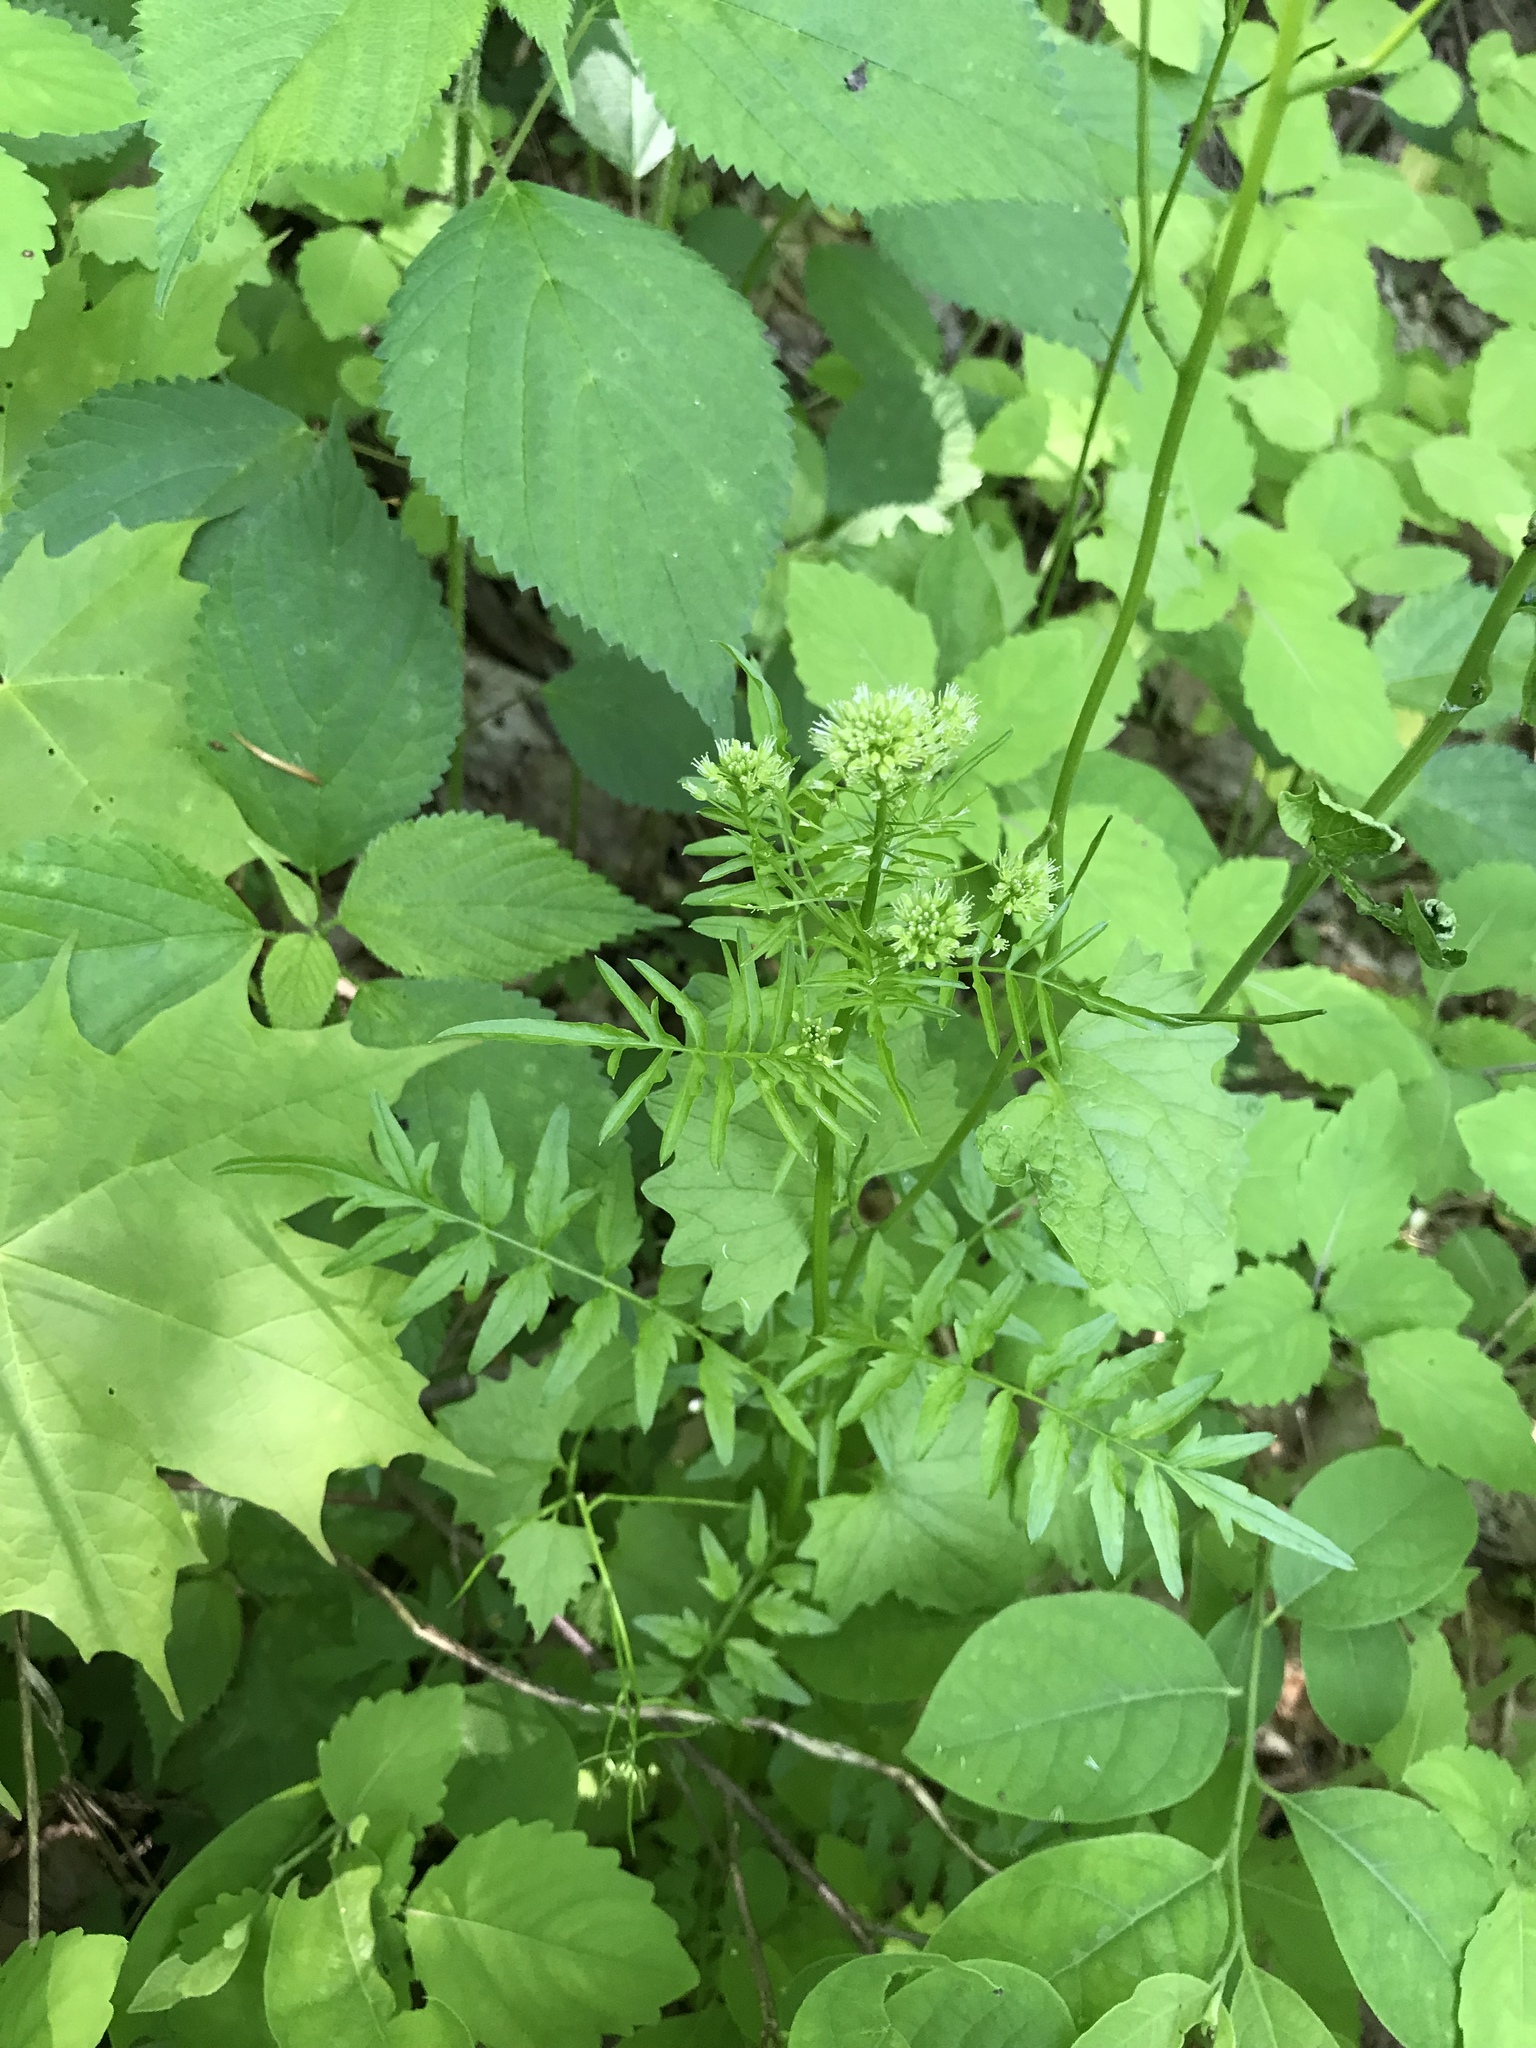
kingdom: Plantae
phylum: Tracheophyta
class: Magnoliopsida
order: Brassicales
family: Brassicaceae
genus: Cardamine
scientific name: Cardamine impatiens
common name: Narrow-leaved bitter-cress
